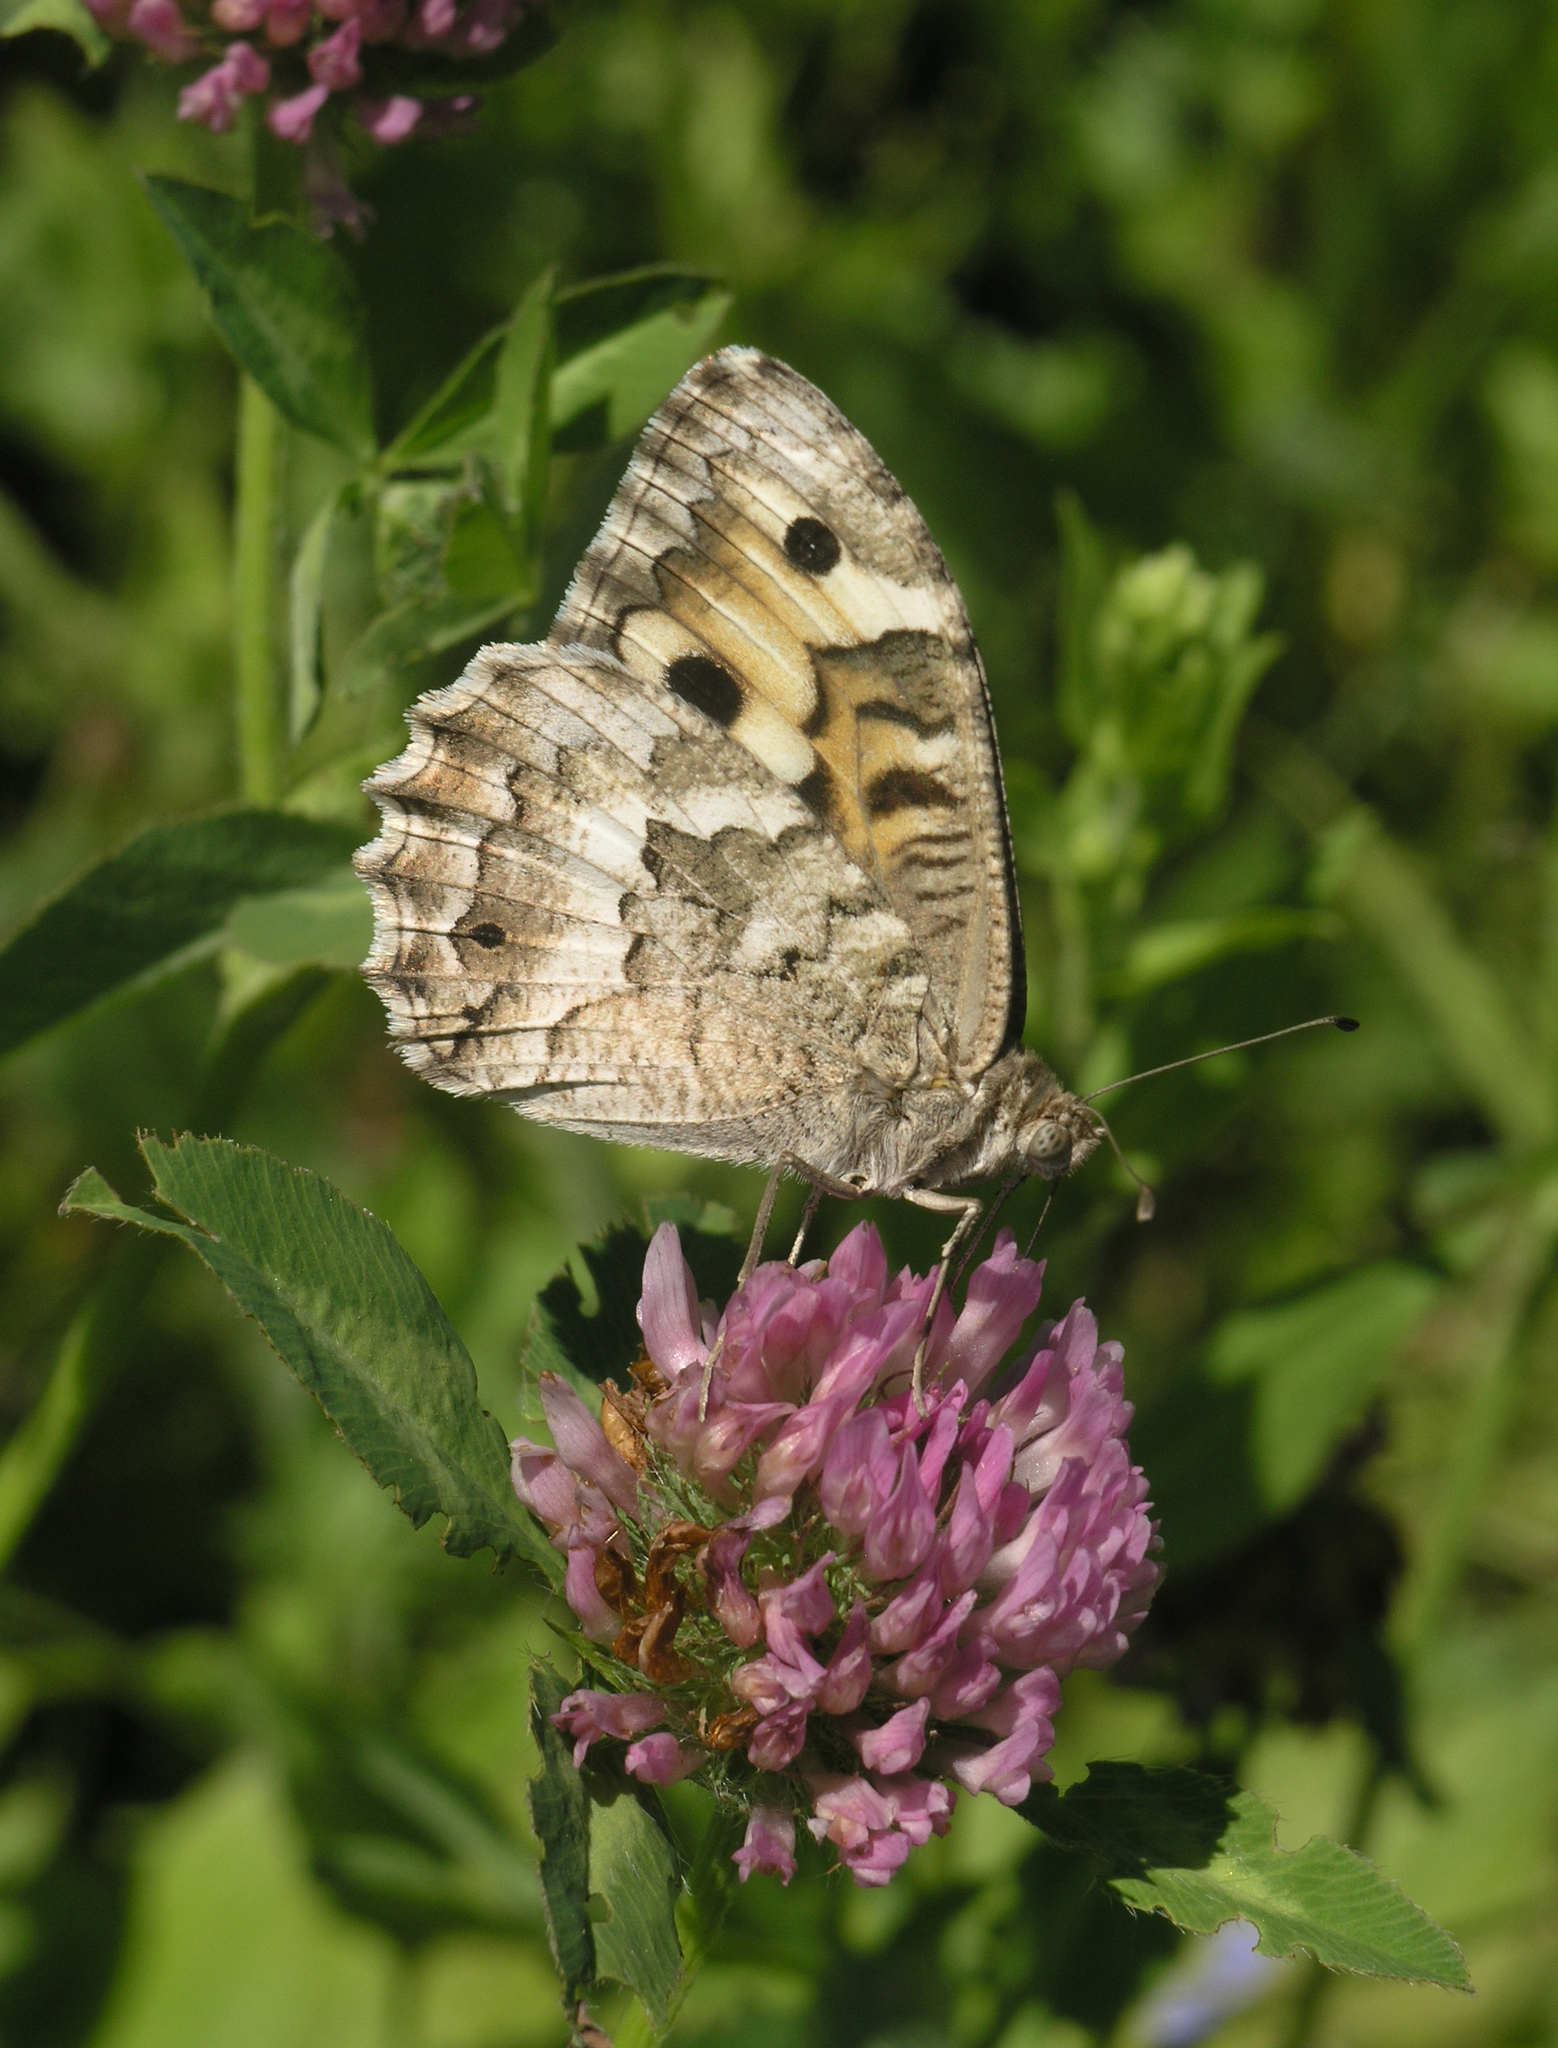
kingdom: Animalia
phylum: Arthropoda
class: Insecta
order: Lepidoptera
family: Nymphalidae
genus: Satyrus
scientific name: Satyrus Chazara enervata
